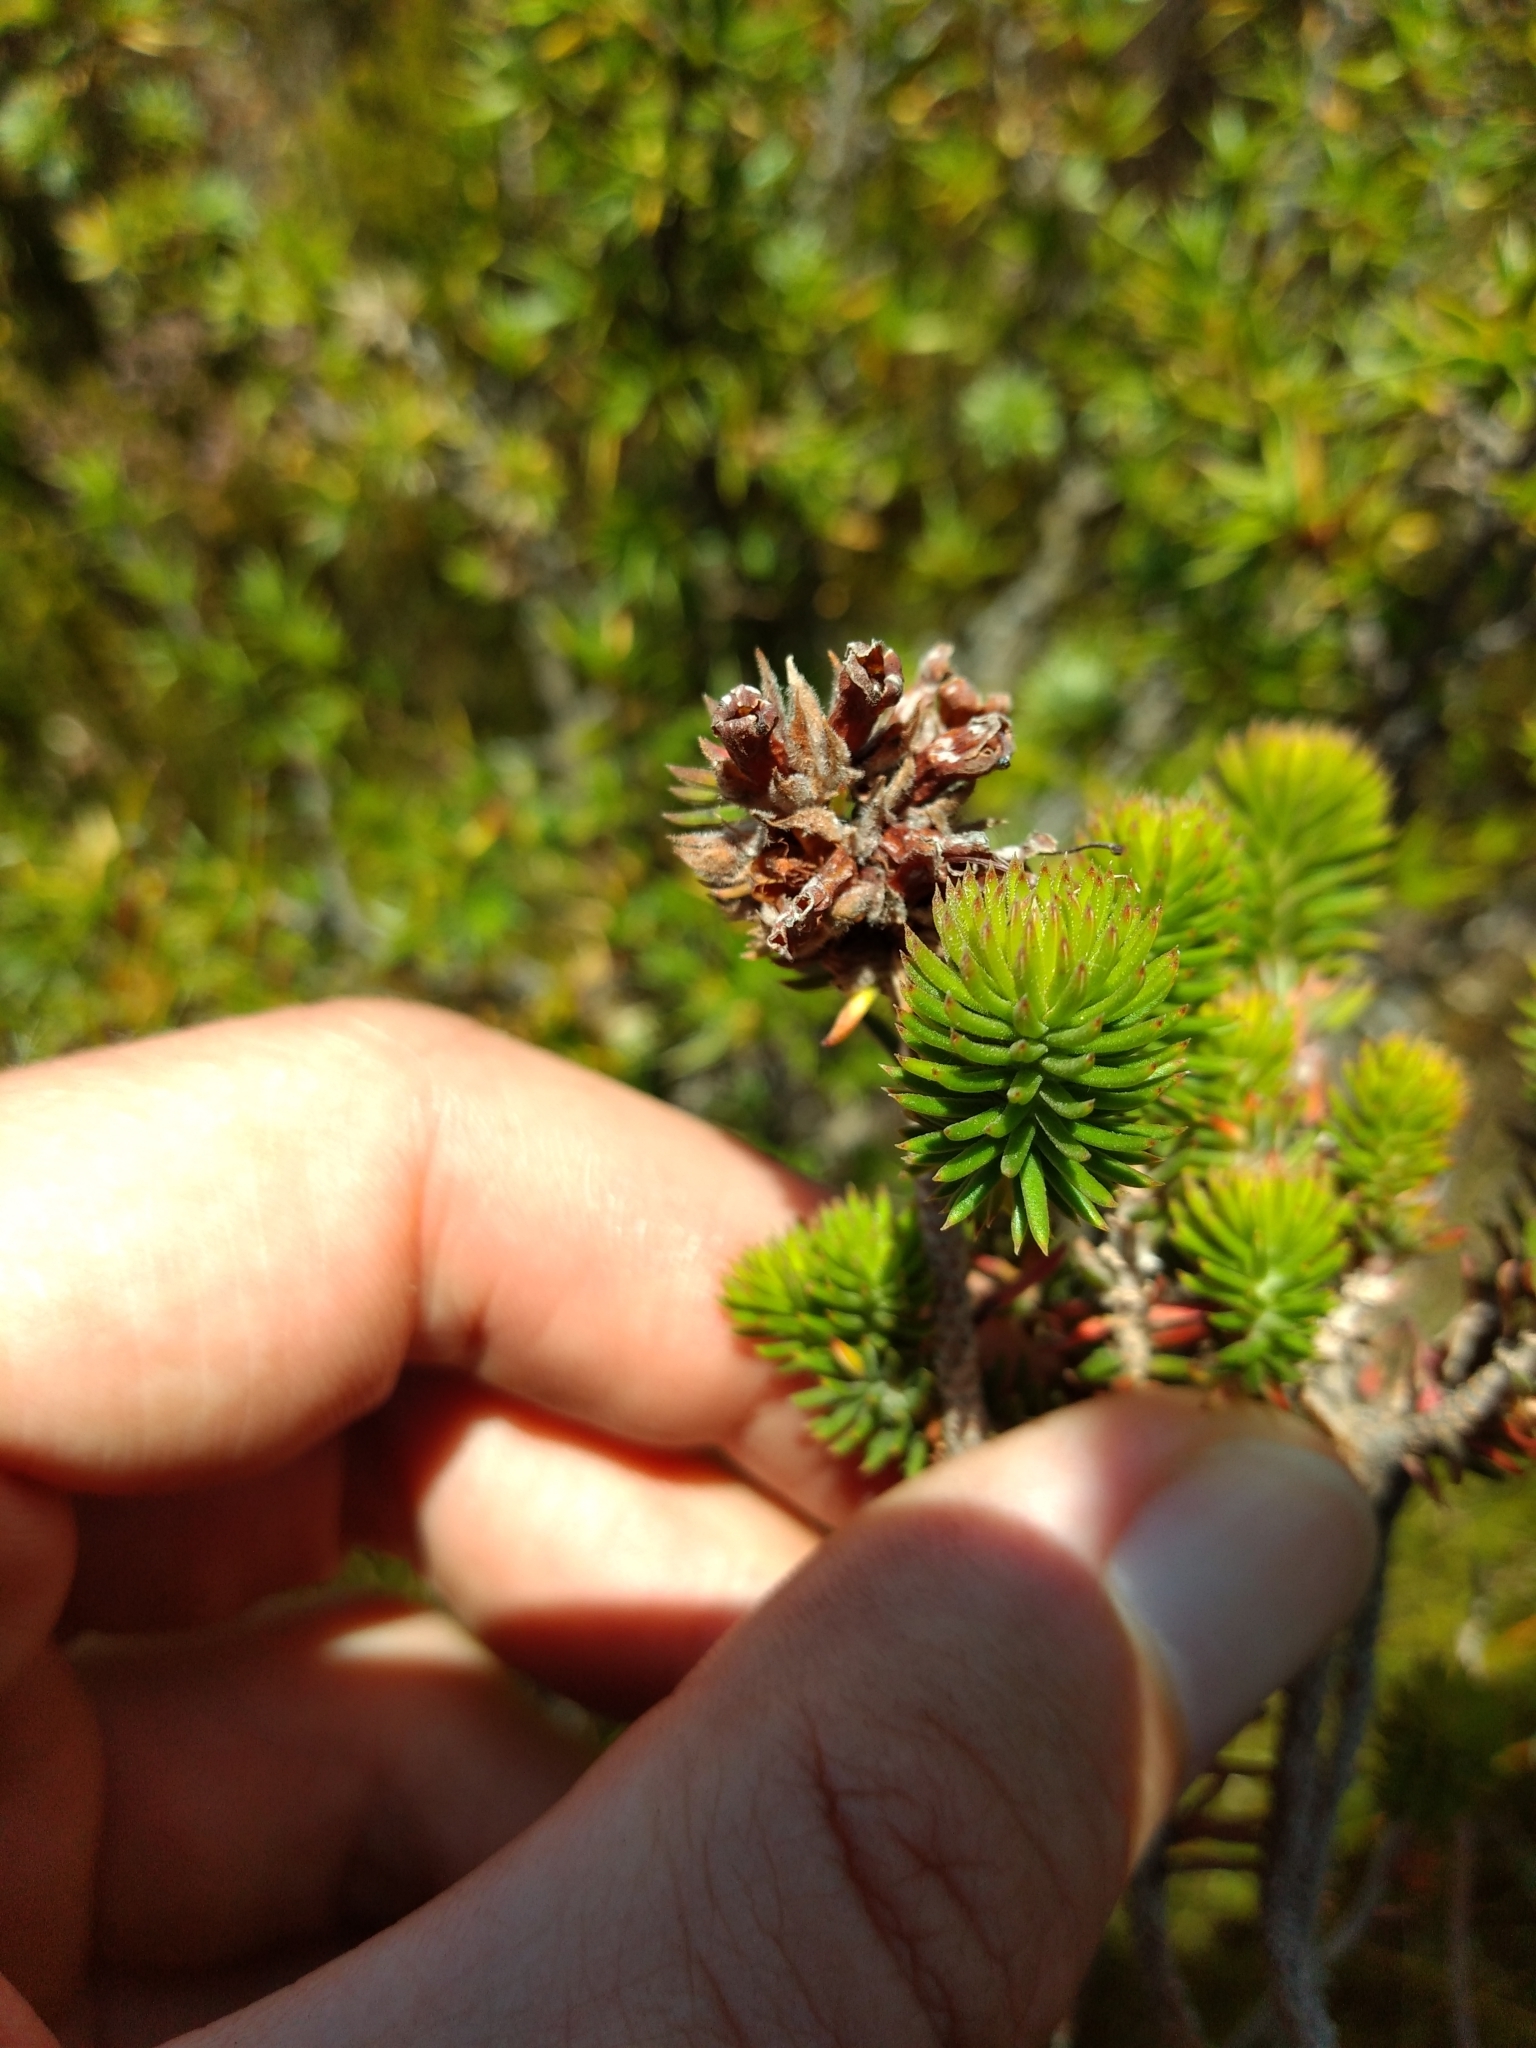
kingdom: Plantae
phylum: Tracheophyta
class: Magnoliopsida
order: Ericales
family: Ericaceae
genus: Erica
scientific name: Erica abietina
